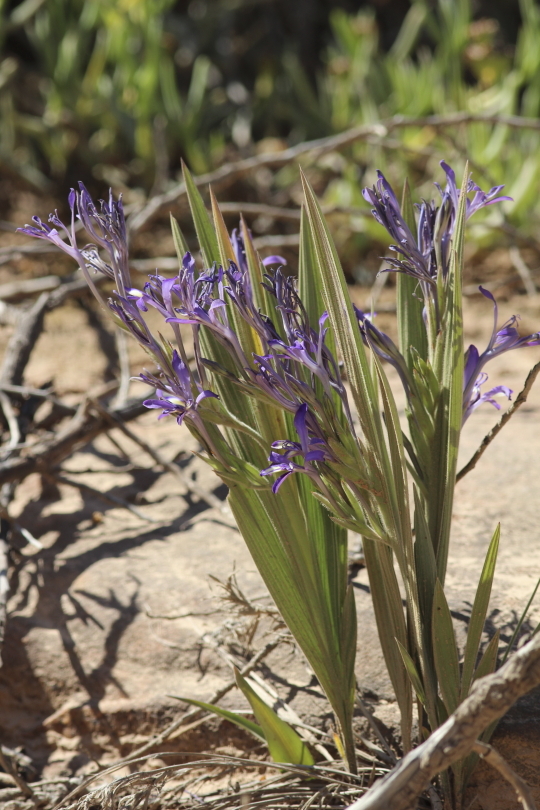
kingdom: Plantae
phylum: Tracheophyta
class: Liliopsida
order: Asparagales
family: Iridaceae
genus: Babiana
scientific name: Babiana ecklonii
